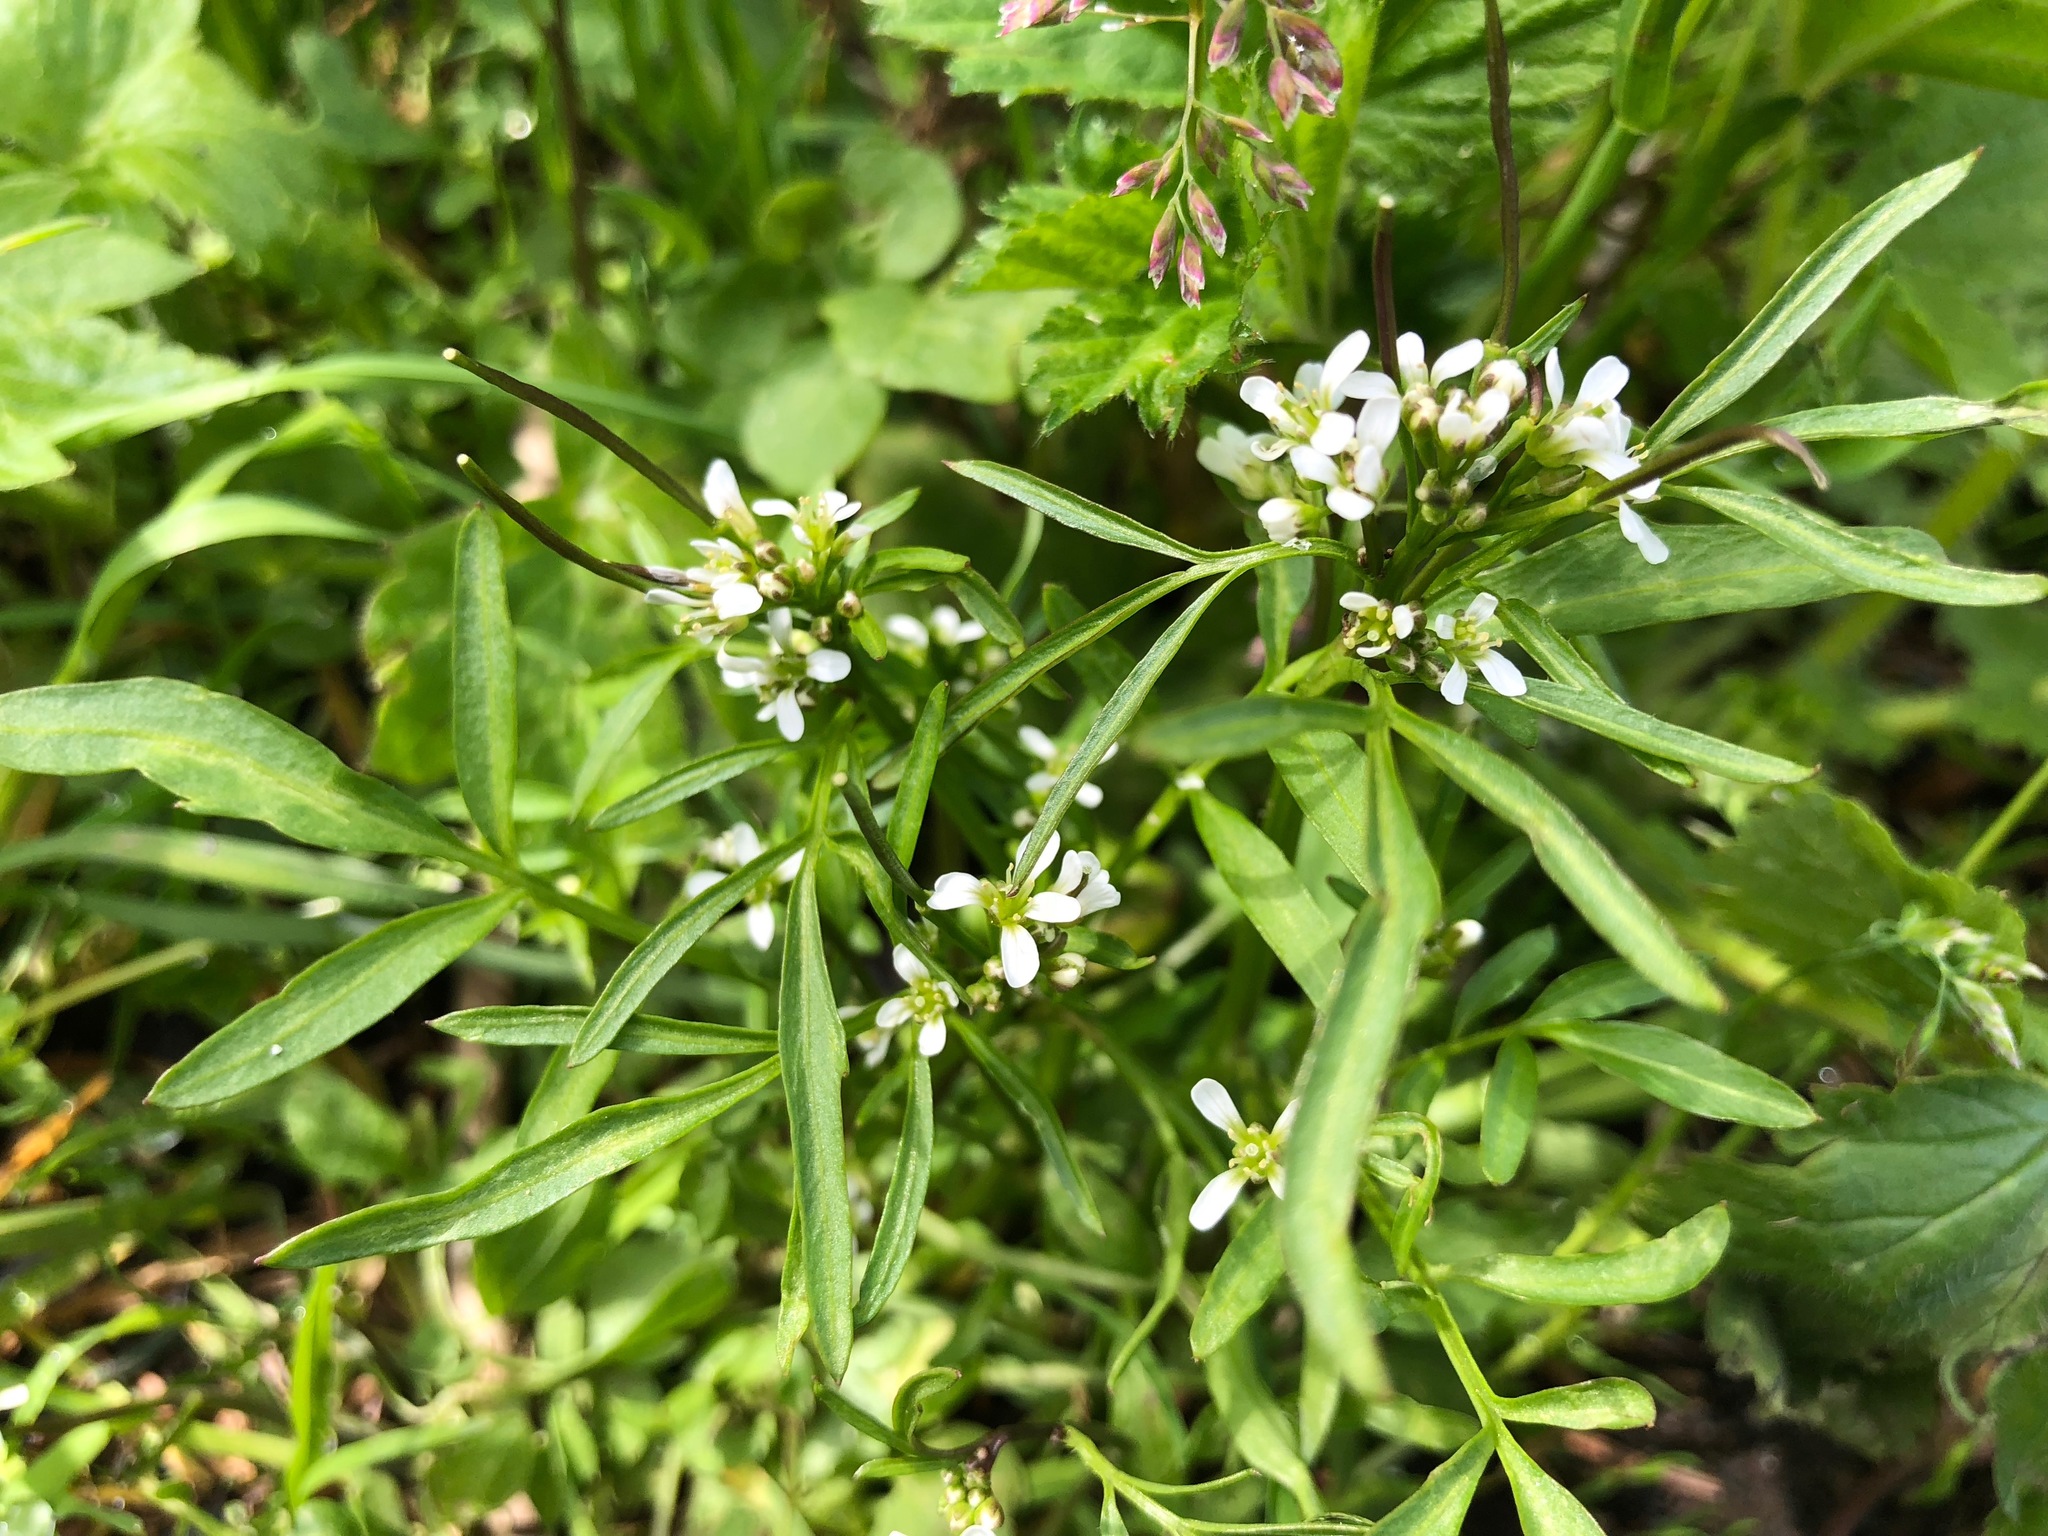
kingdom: Plantae
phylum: Tracheophyta
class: Magnoliopsida
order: Brassicales
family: Brassicaceae
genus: Cardamine
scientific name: Cardamine umbellata
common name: Siberian bittercress
